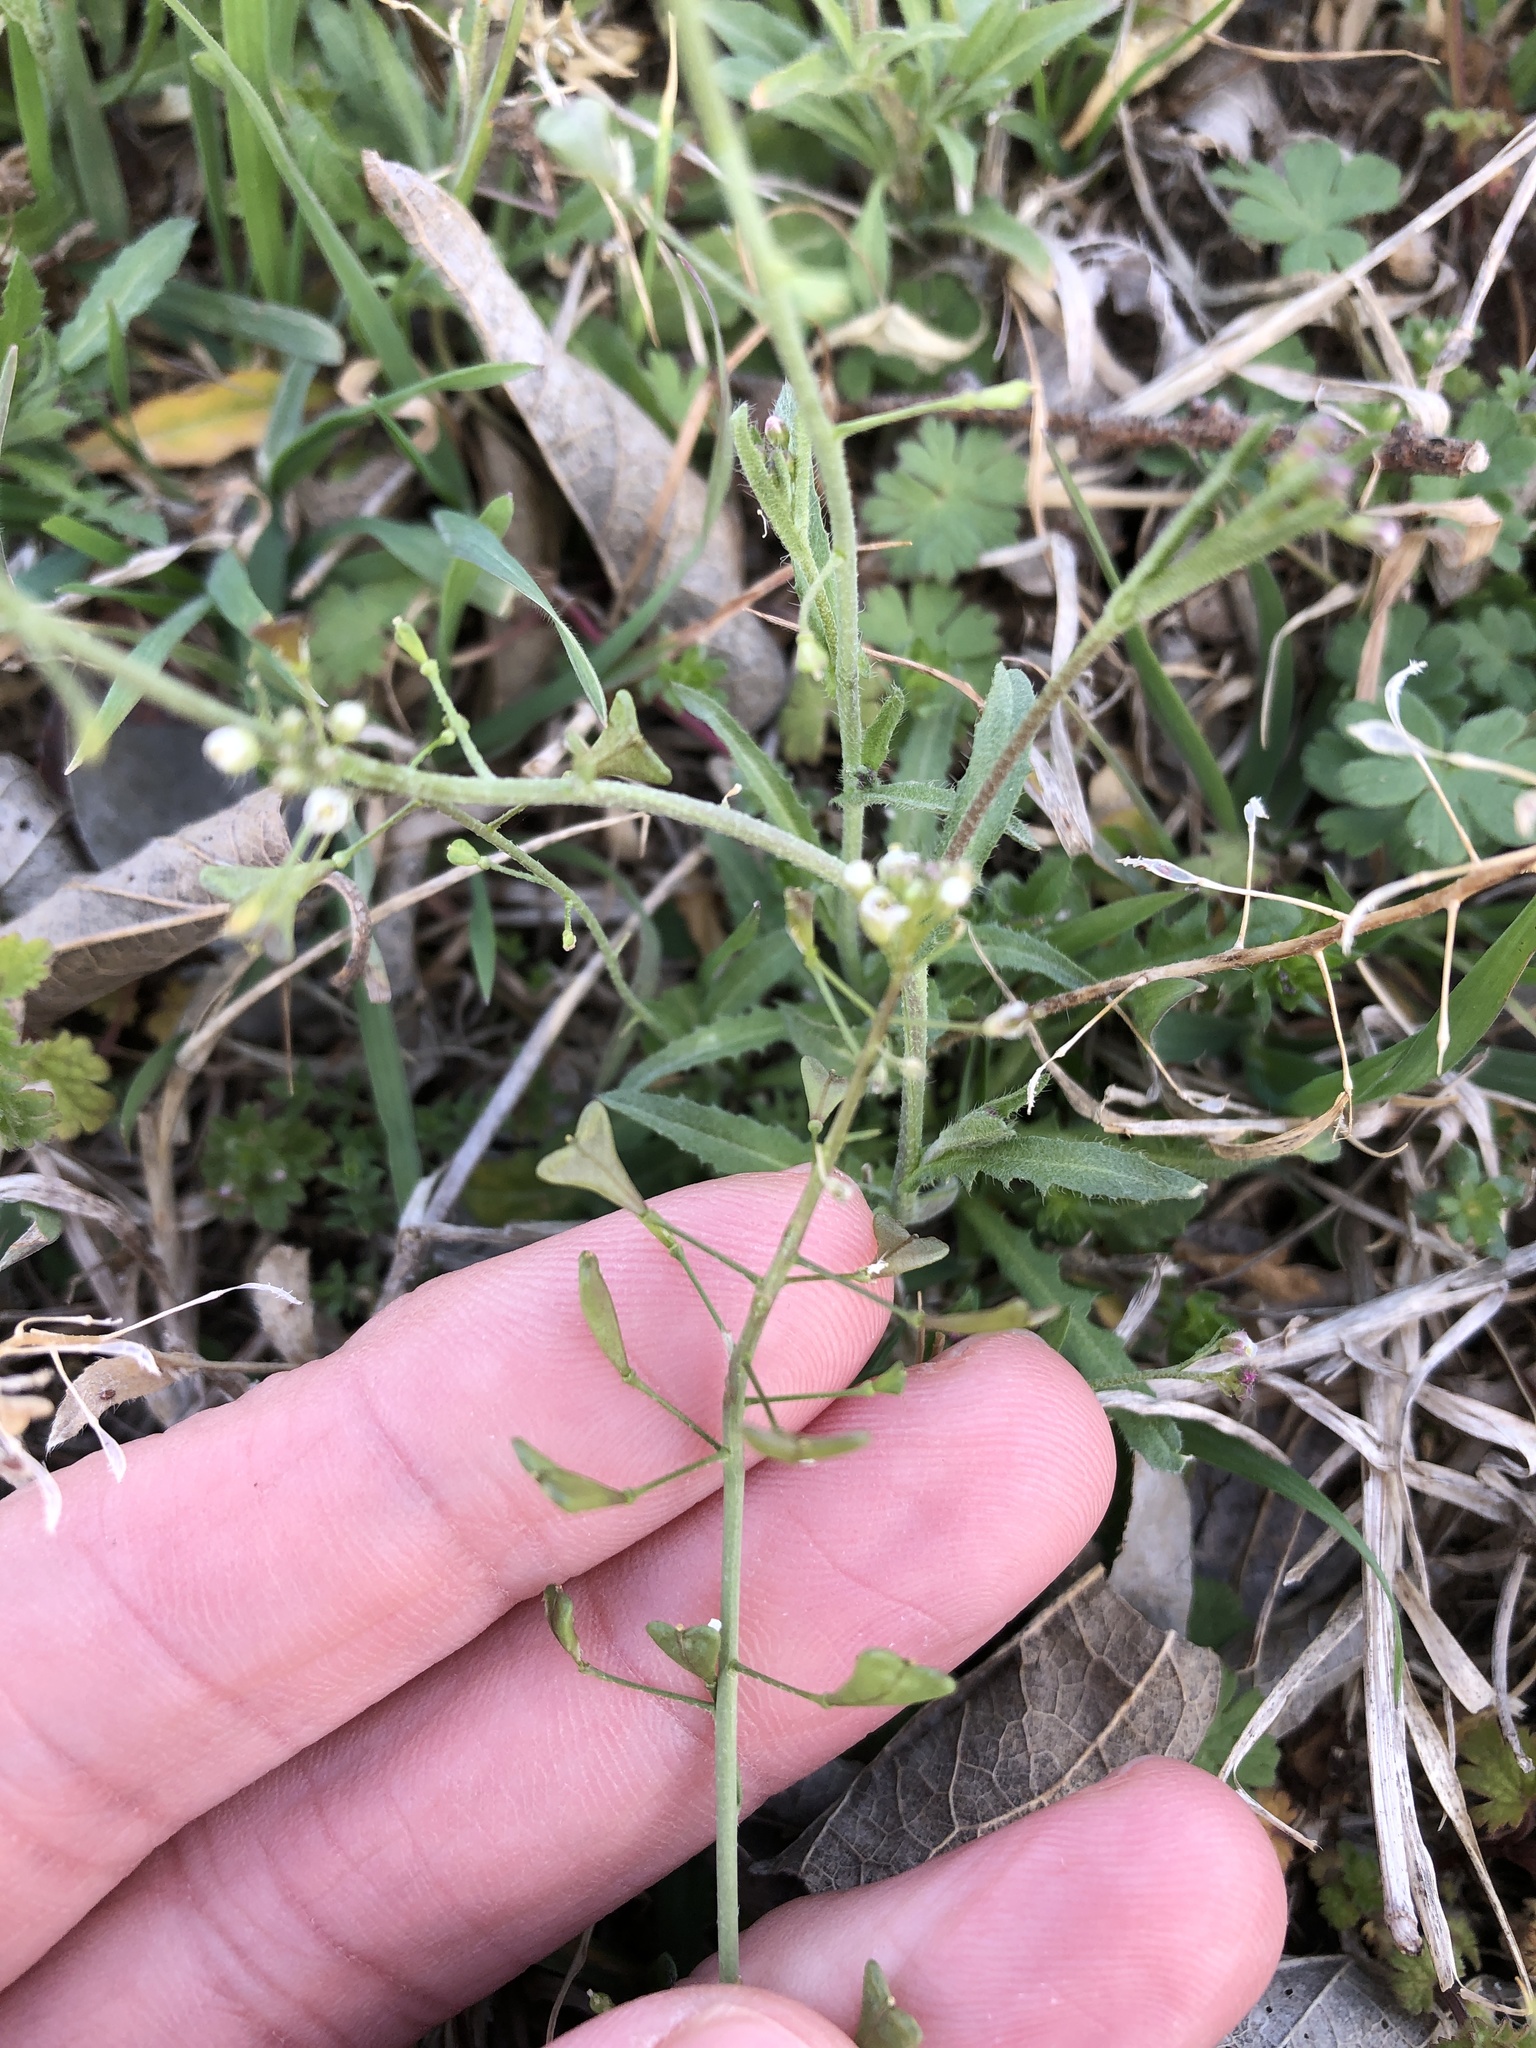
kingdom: Plantae
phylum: Tracheophyta
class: Magnoliopsida
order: Brassicales
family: Brassicaceae
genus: Capsella
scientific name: Capsella bursa-pastoris
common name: Shepherd's purse
